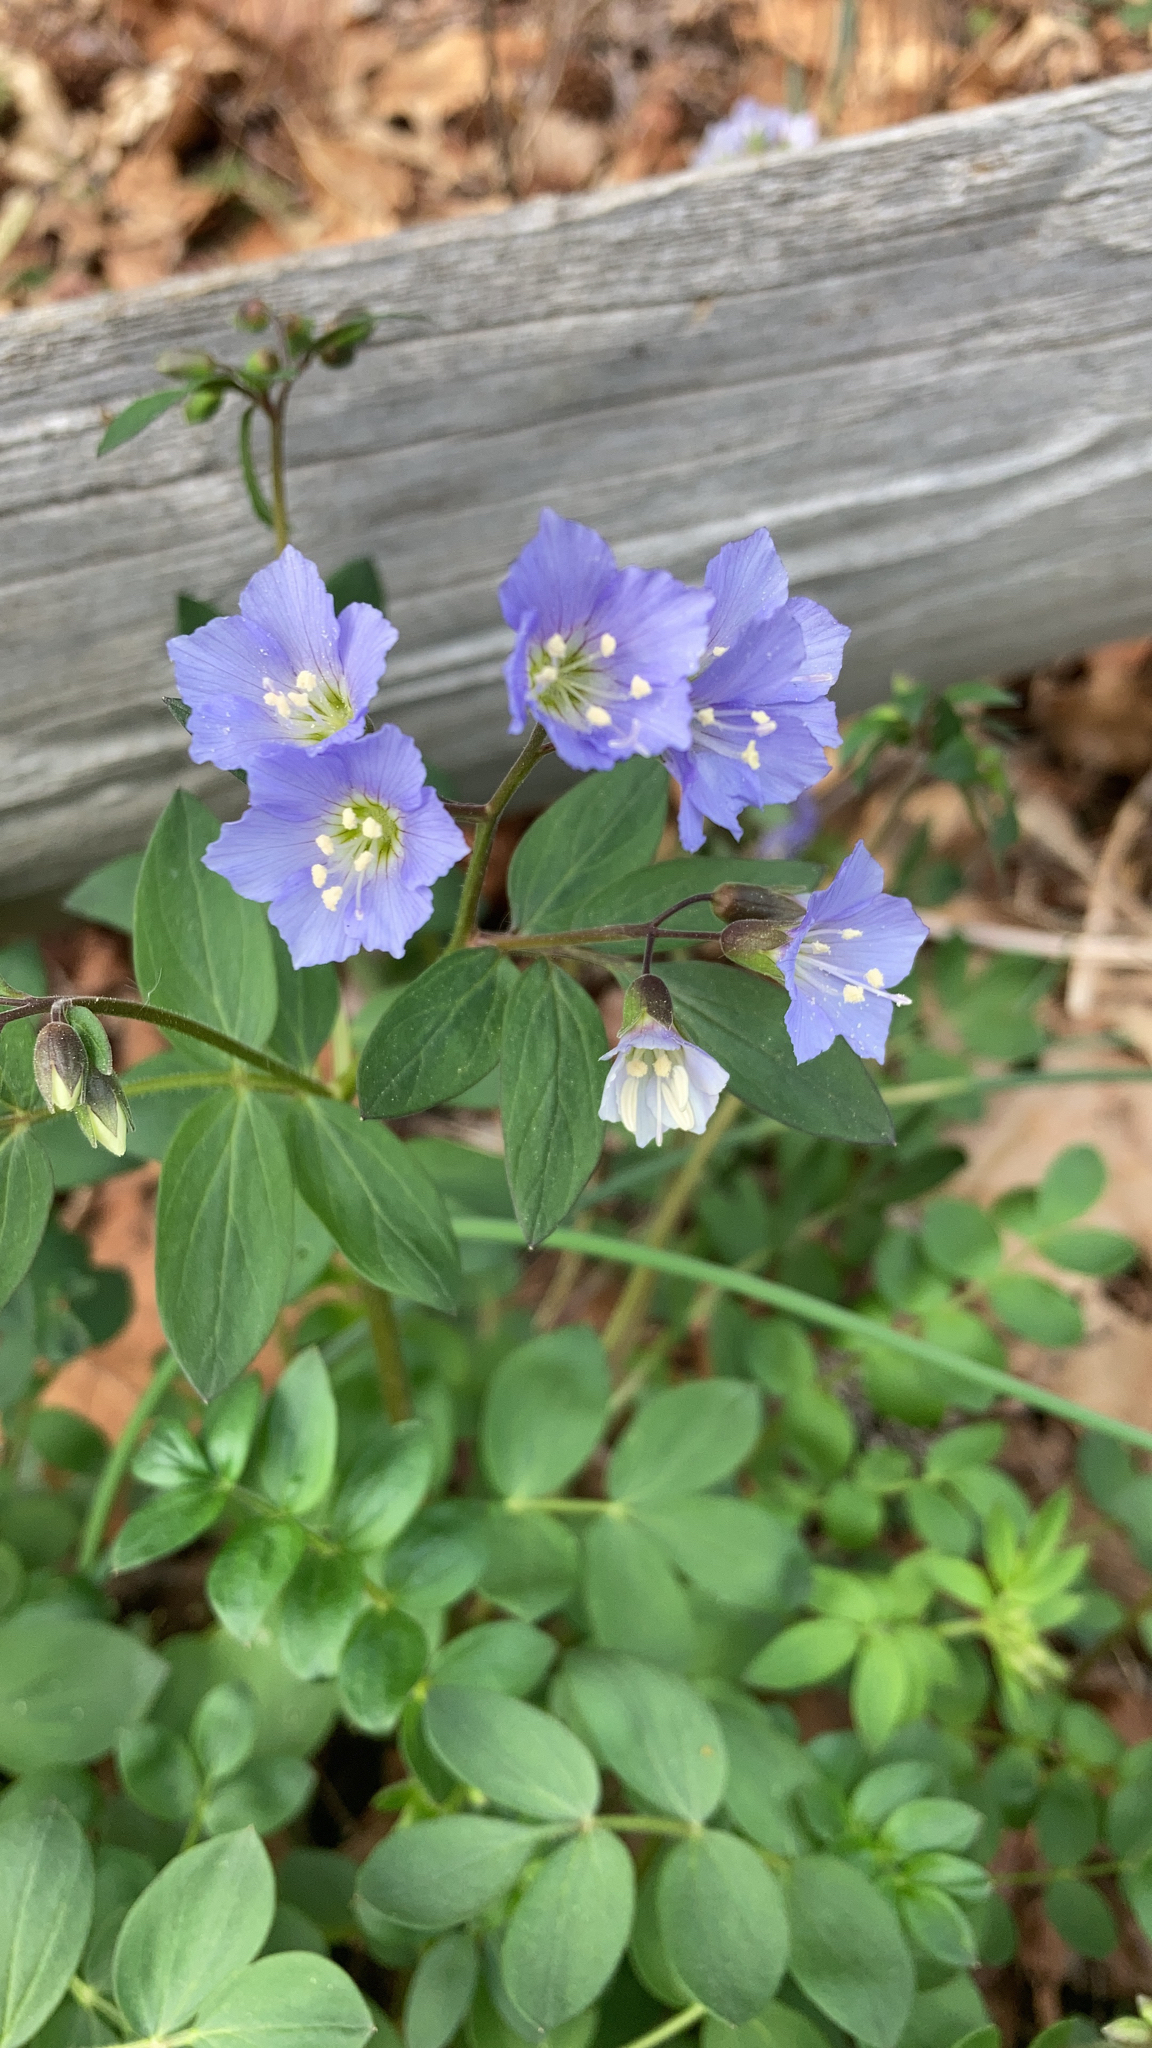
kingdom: Plantae
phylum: Tracheophyta
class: Magnoliopsida
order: Ericales
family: Polemoniaceae
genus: Polemonium
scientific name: Polemonium reptans
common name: Creeping jacob's-ladder
